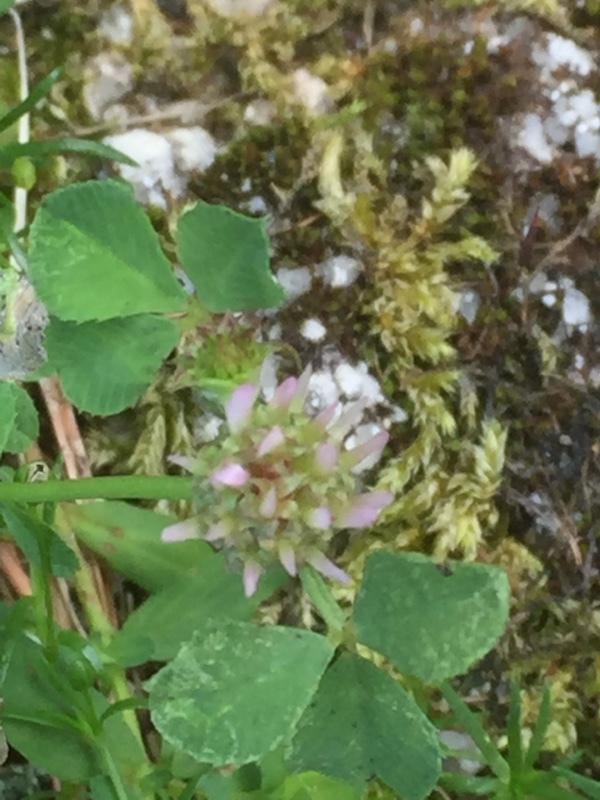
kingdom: Plantae
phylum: Tracheophyta
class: Magnoliopsida
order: Fabales
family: Fabaceae
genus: Trifolium
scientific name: Trifolium glomeratum
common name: Clustered clover
